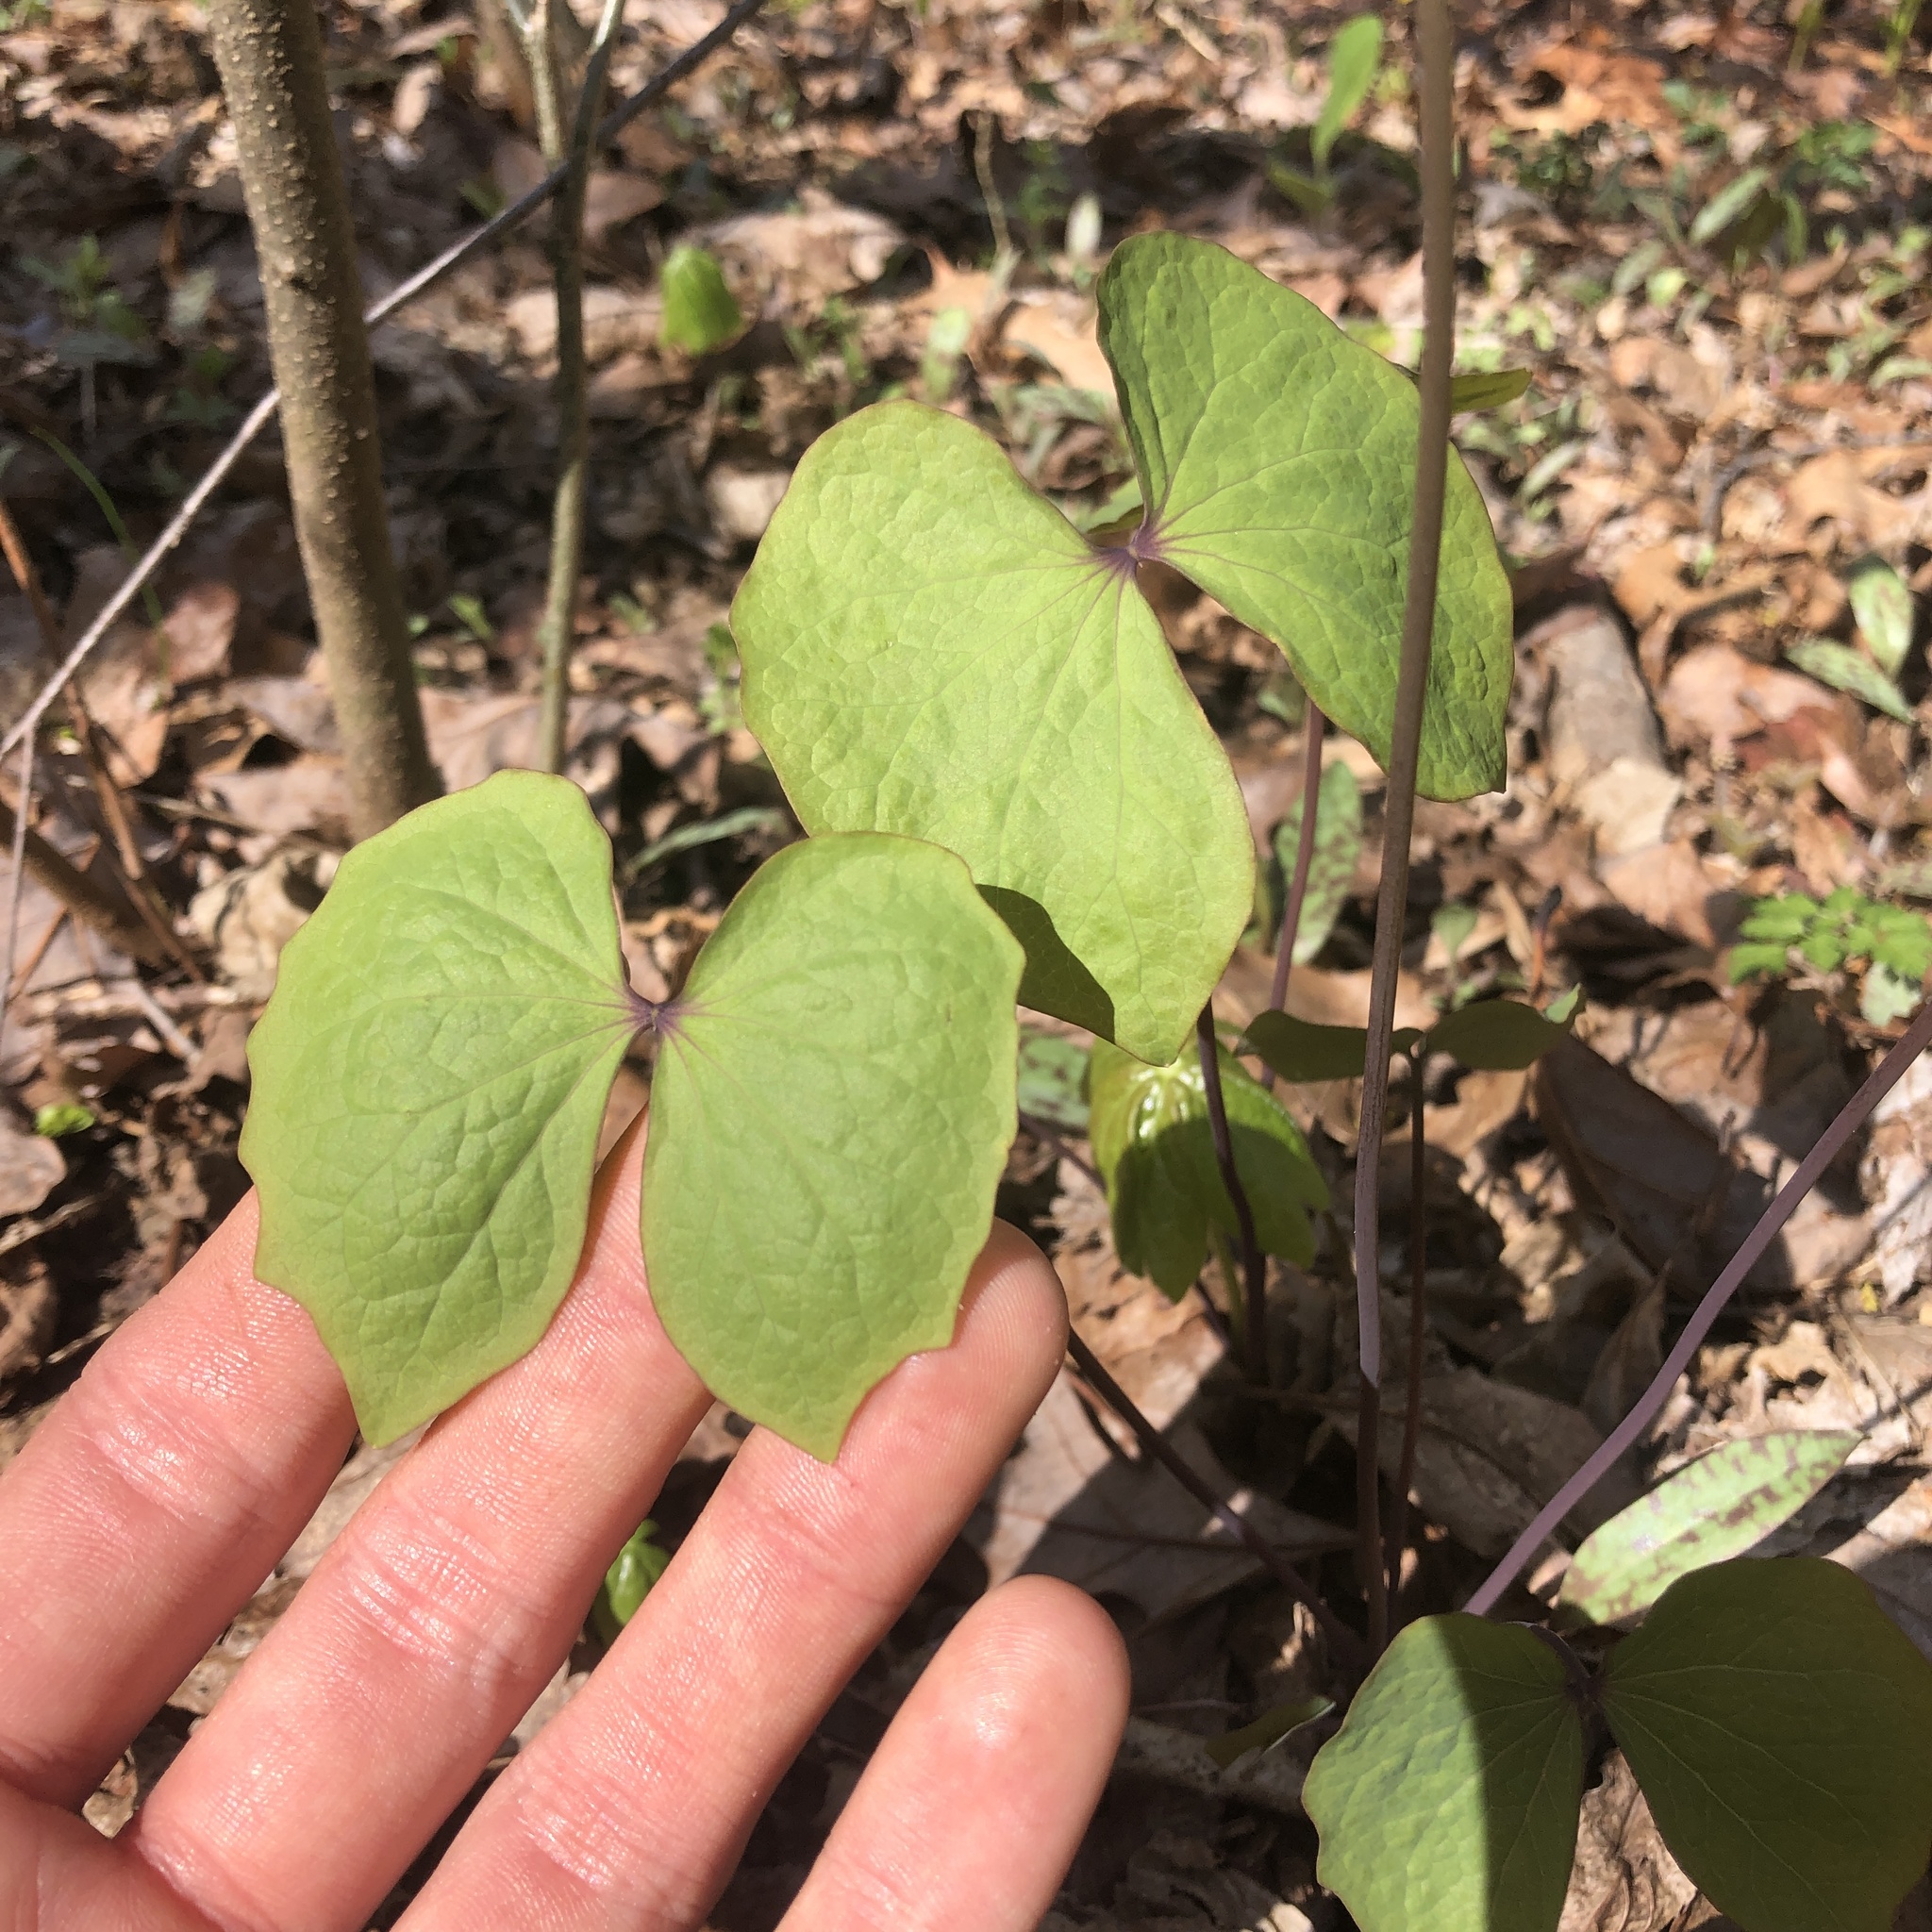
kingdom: Plantae
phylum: Tracheophyta
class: Magnoliopsida
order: Ranunculales
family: Berberidaceae
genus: Jeffersonia
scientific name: Jeffersonia diphylla
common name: Rheumatism-root
